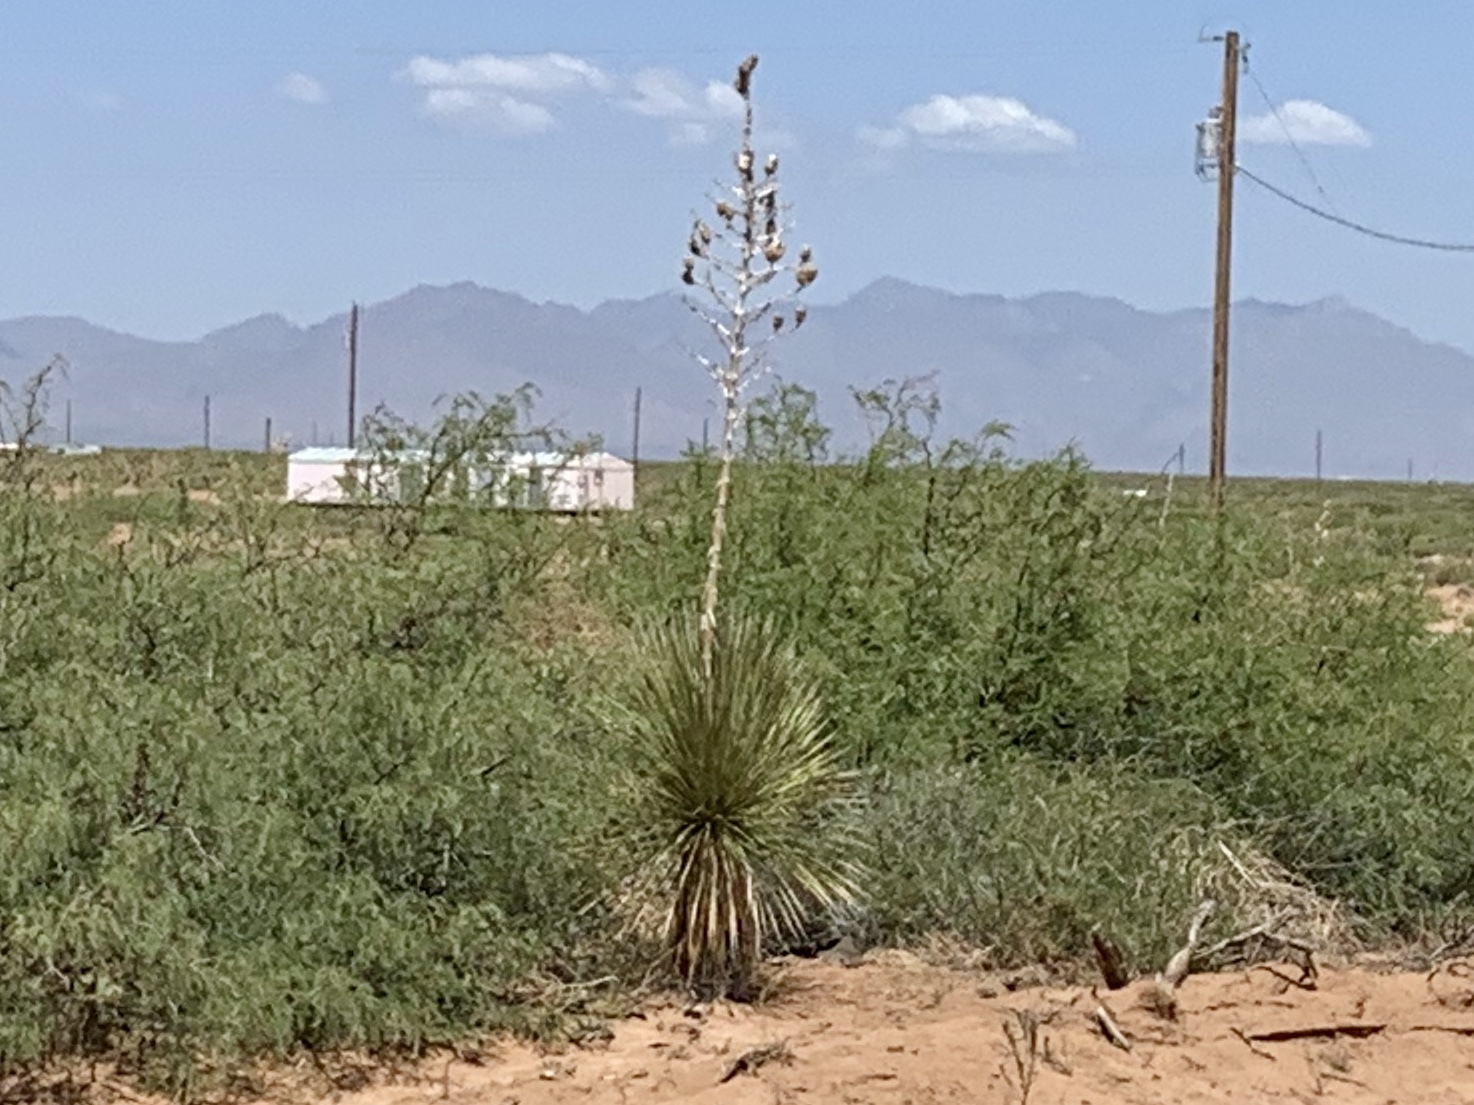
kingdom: Plantae
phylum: Tracheophyta
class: Liliopsida
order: Asparagales
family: Asparagaceae
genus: Yucca
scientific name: Yucca elata
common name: Palmella
